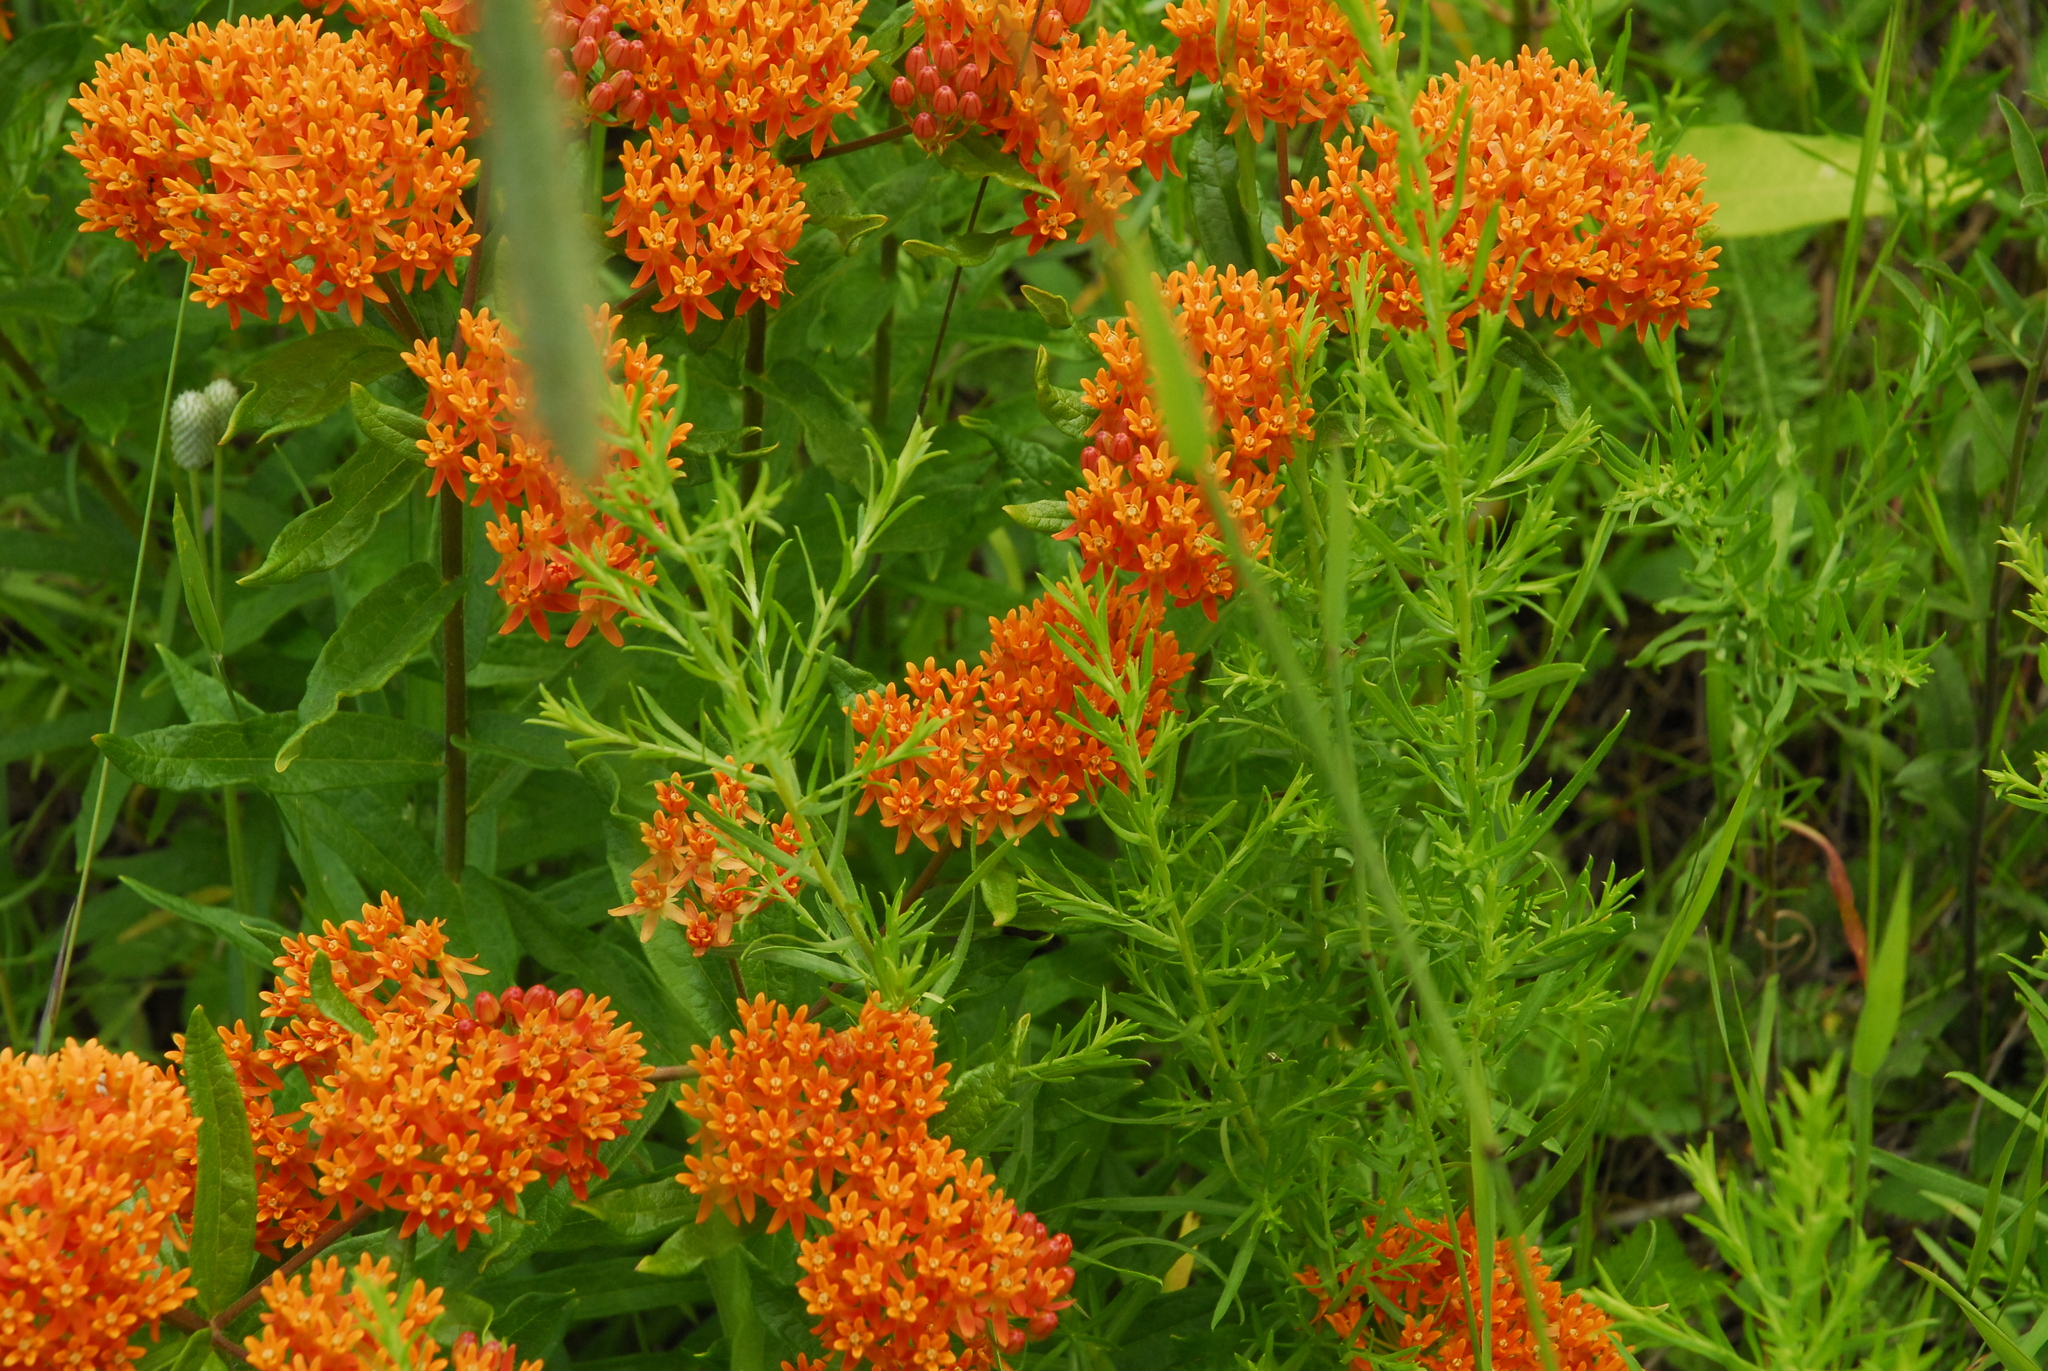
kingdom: Plantae
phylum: Tracheophyta
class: Magnoliopsida
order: Gentianales
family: Apocynaceae
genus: Asclepias
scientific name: Asclepias tuberosa
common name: Butterfly milkweed
